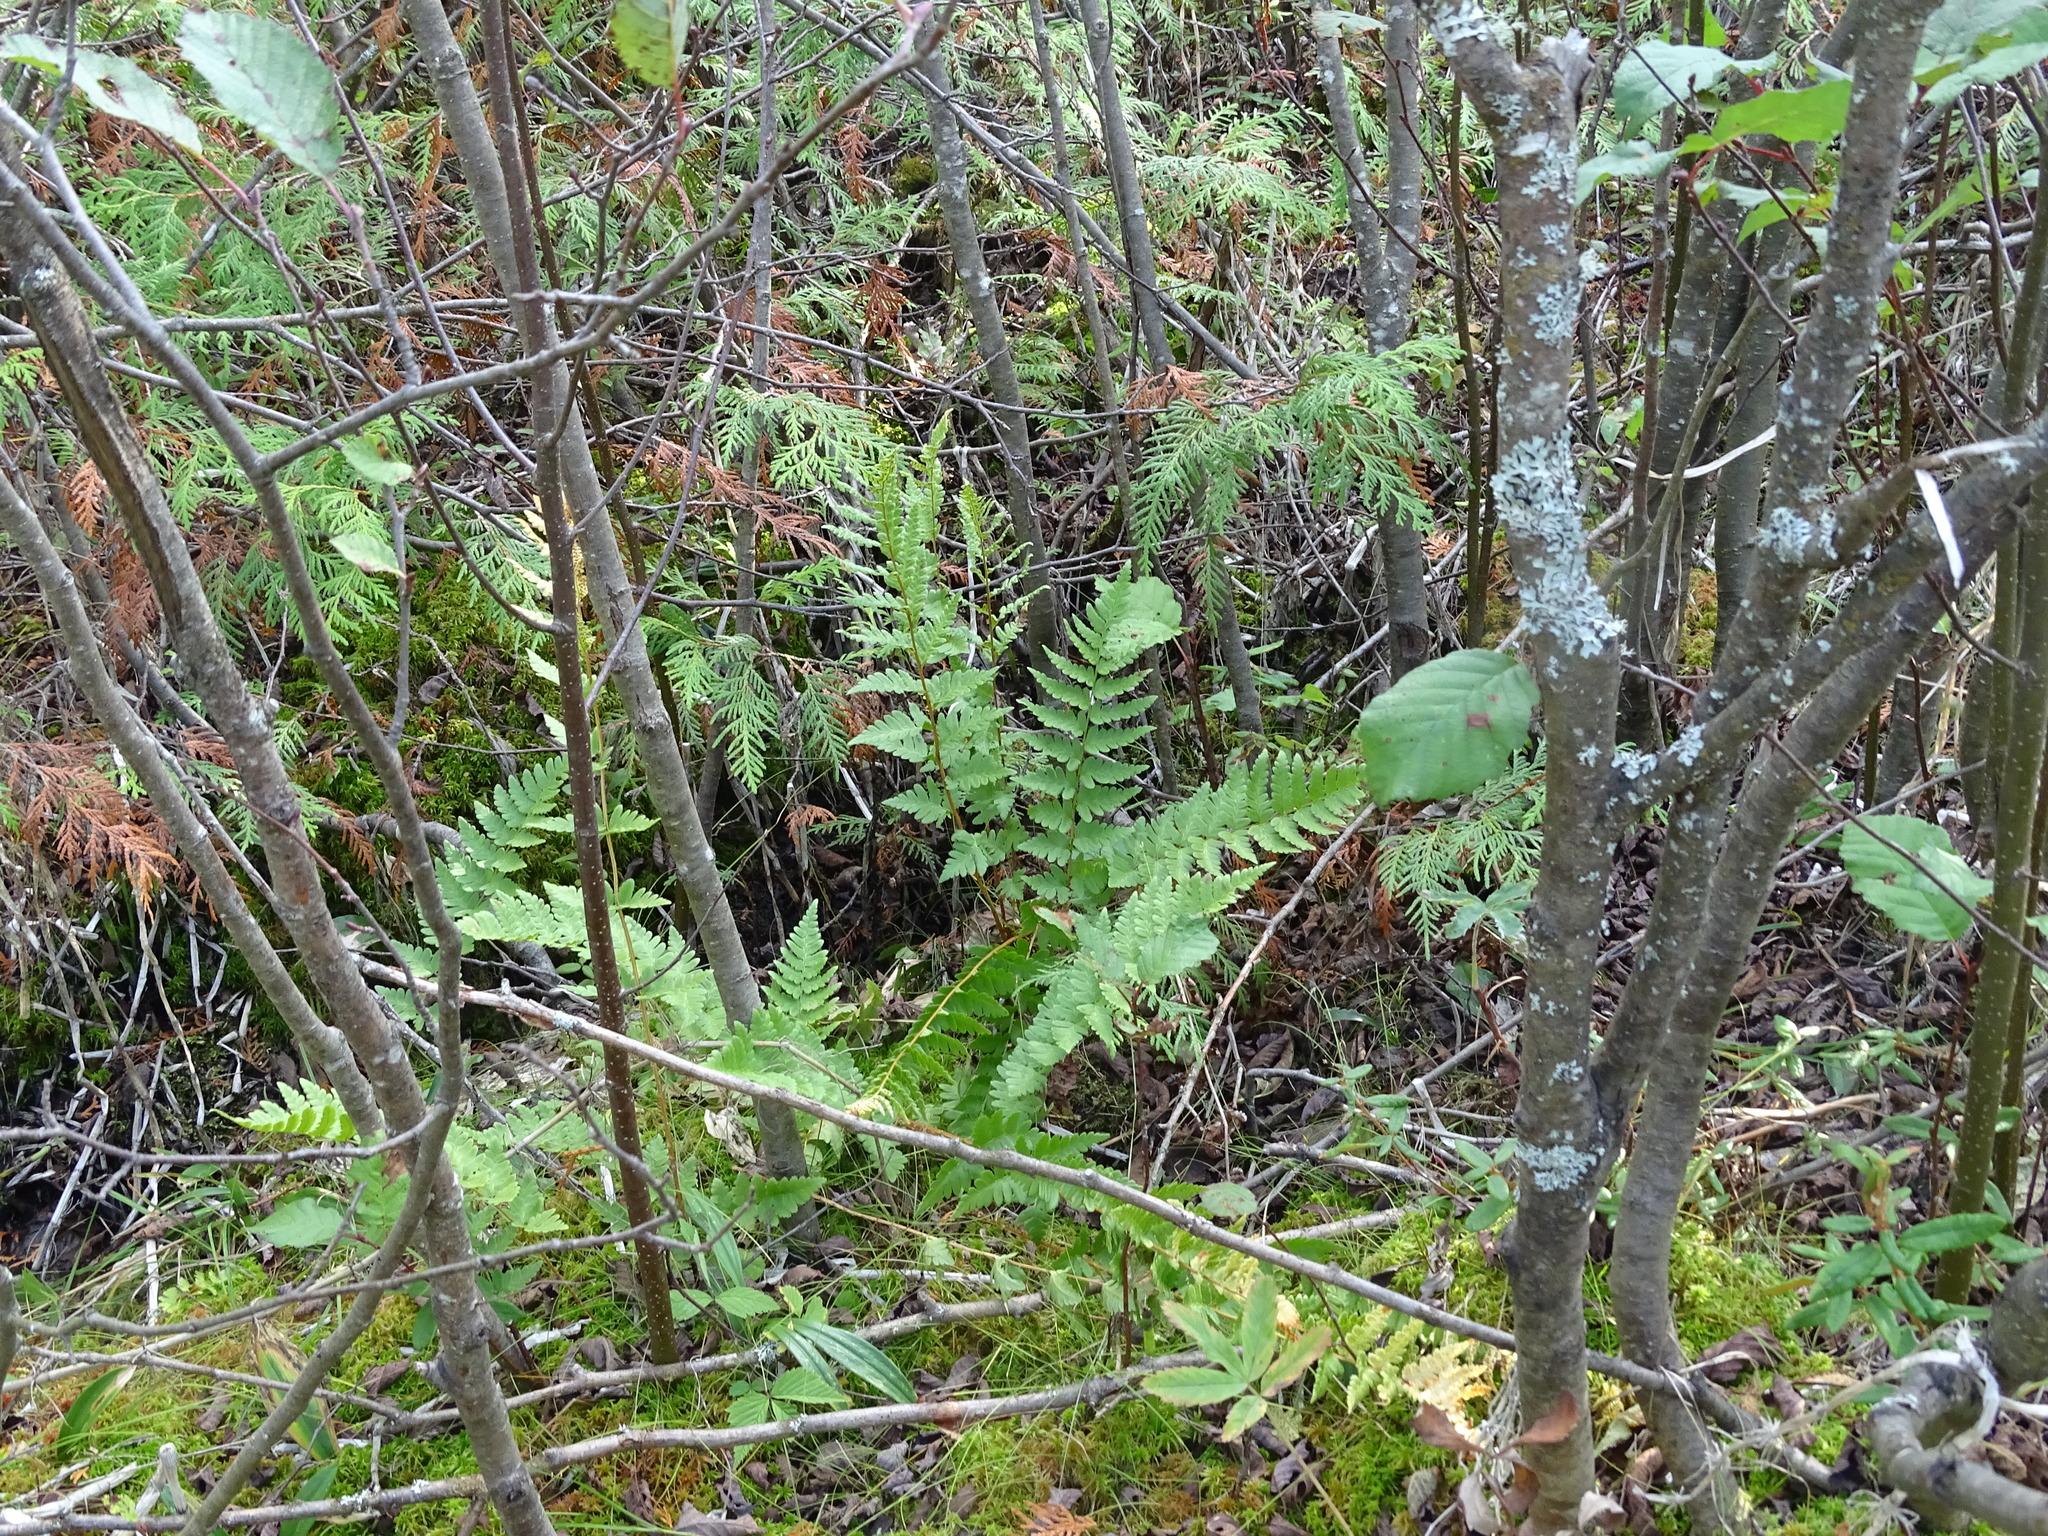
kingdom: Plantae
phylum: Tracheophyta
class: Polypodiopsida
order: Polypodiales
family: Dryopteridaceae
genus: Dryopteris
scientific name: Dryopteris cristata
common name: Crested wood fern
